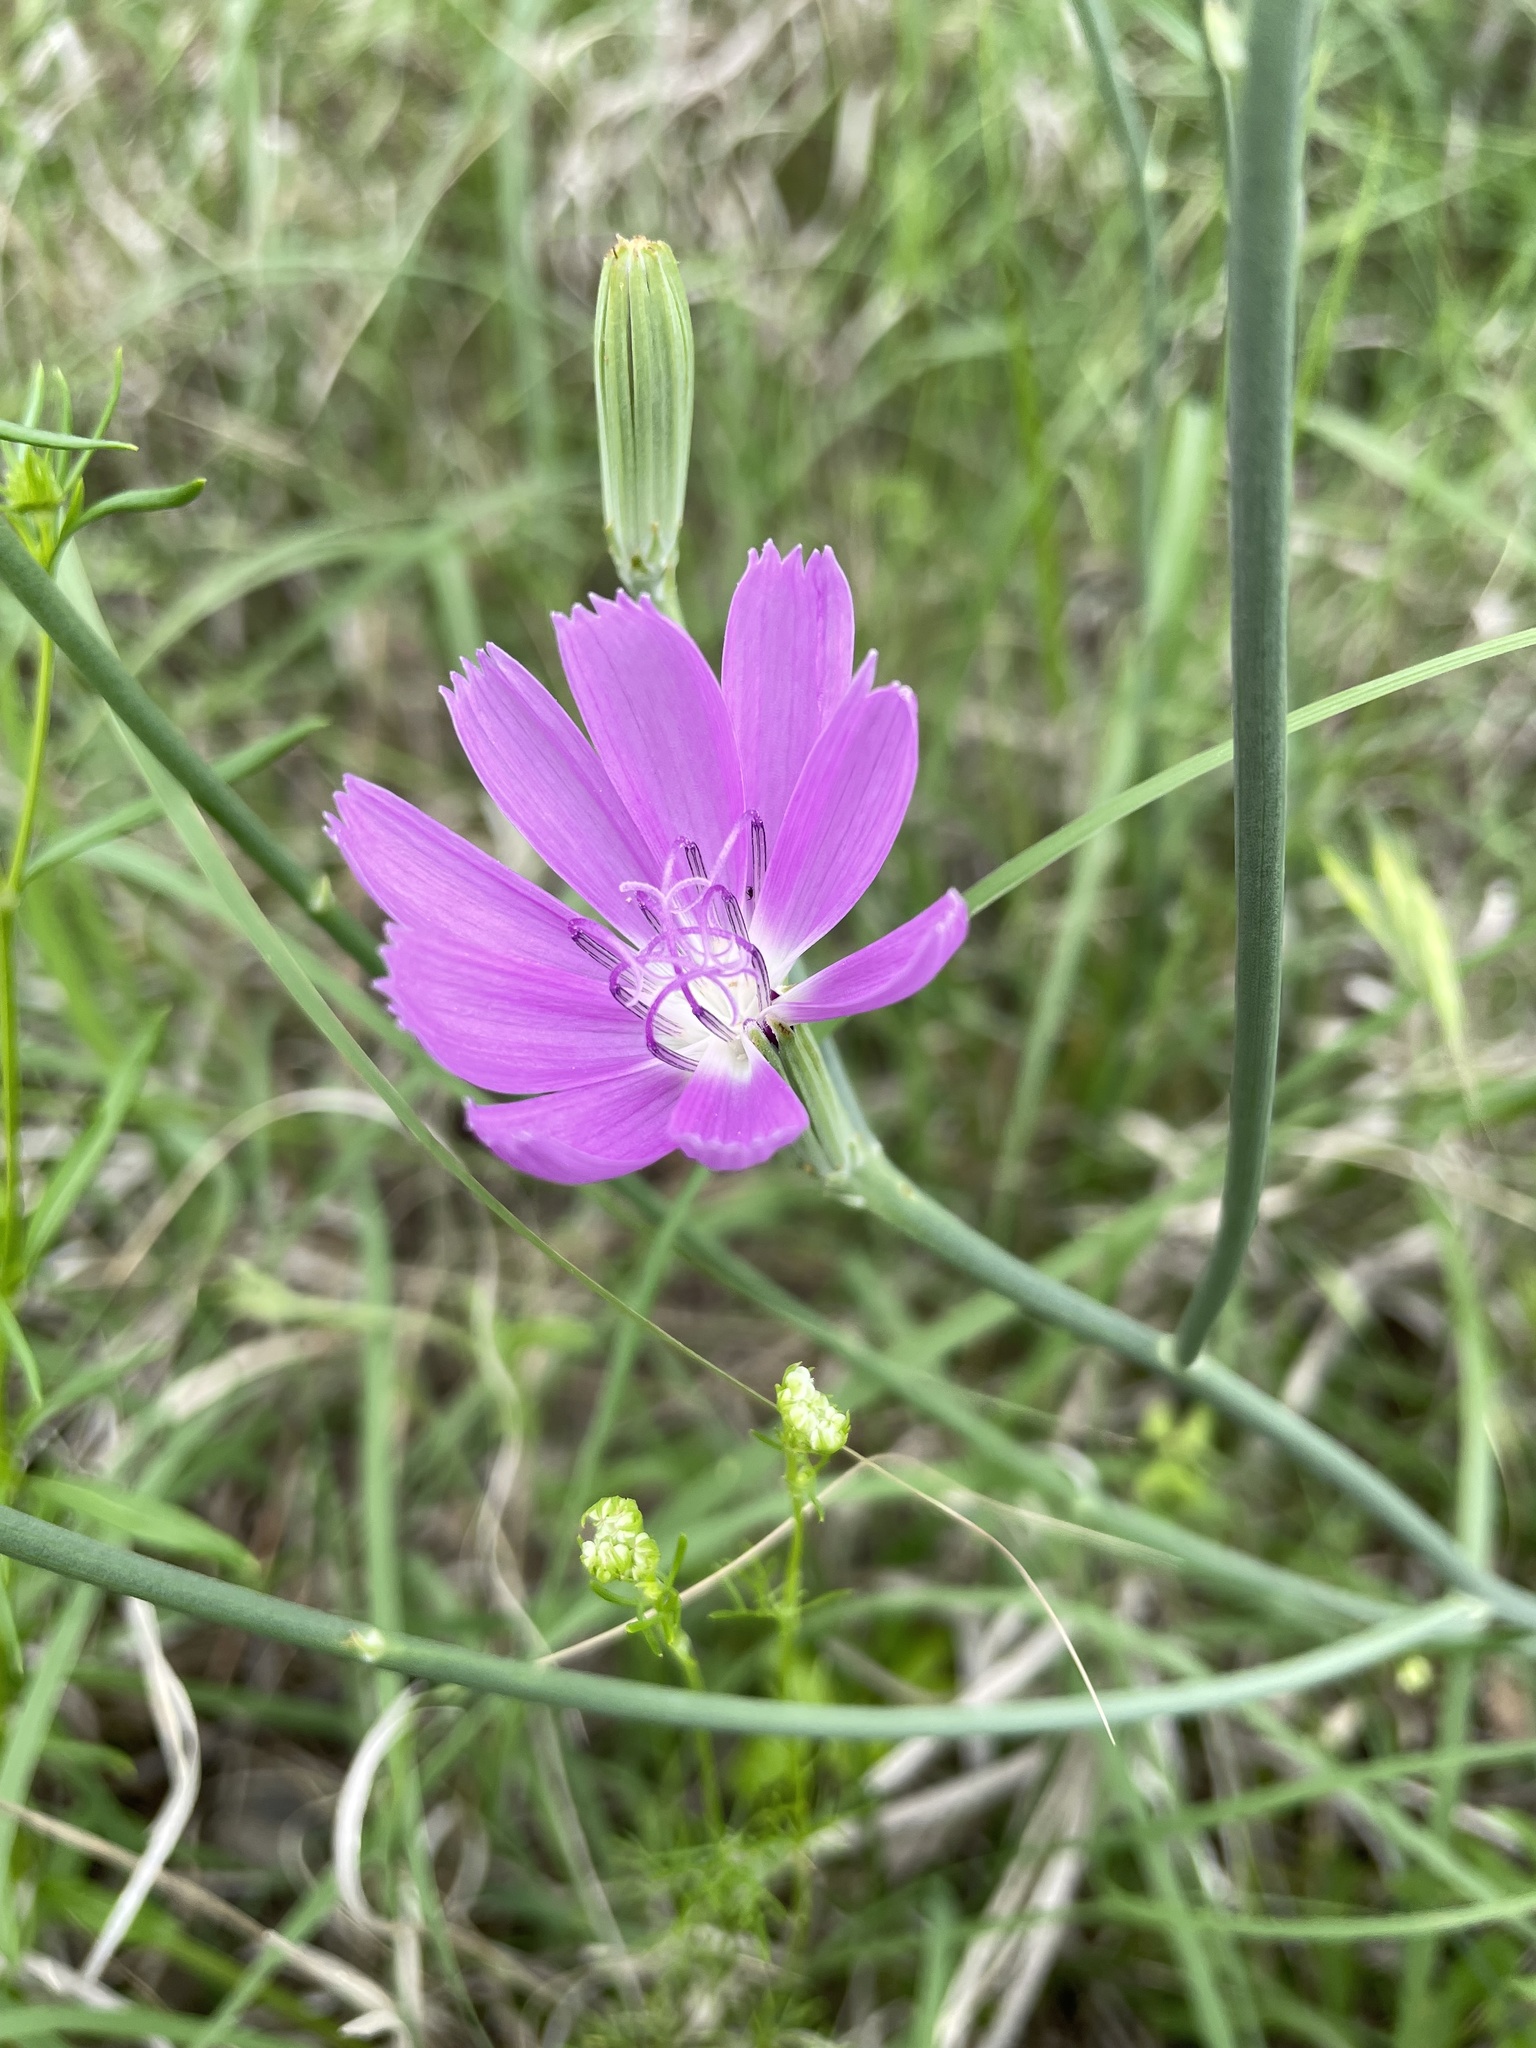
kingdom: Plantae
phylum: Tracheophyta
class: Magnoliopsida
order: Asterales
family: Asteraceae
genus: Lygodesmia
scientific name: Lygodesmia texana
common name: Texas skeleton-plant
